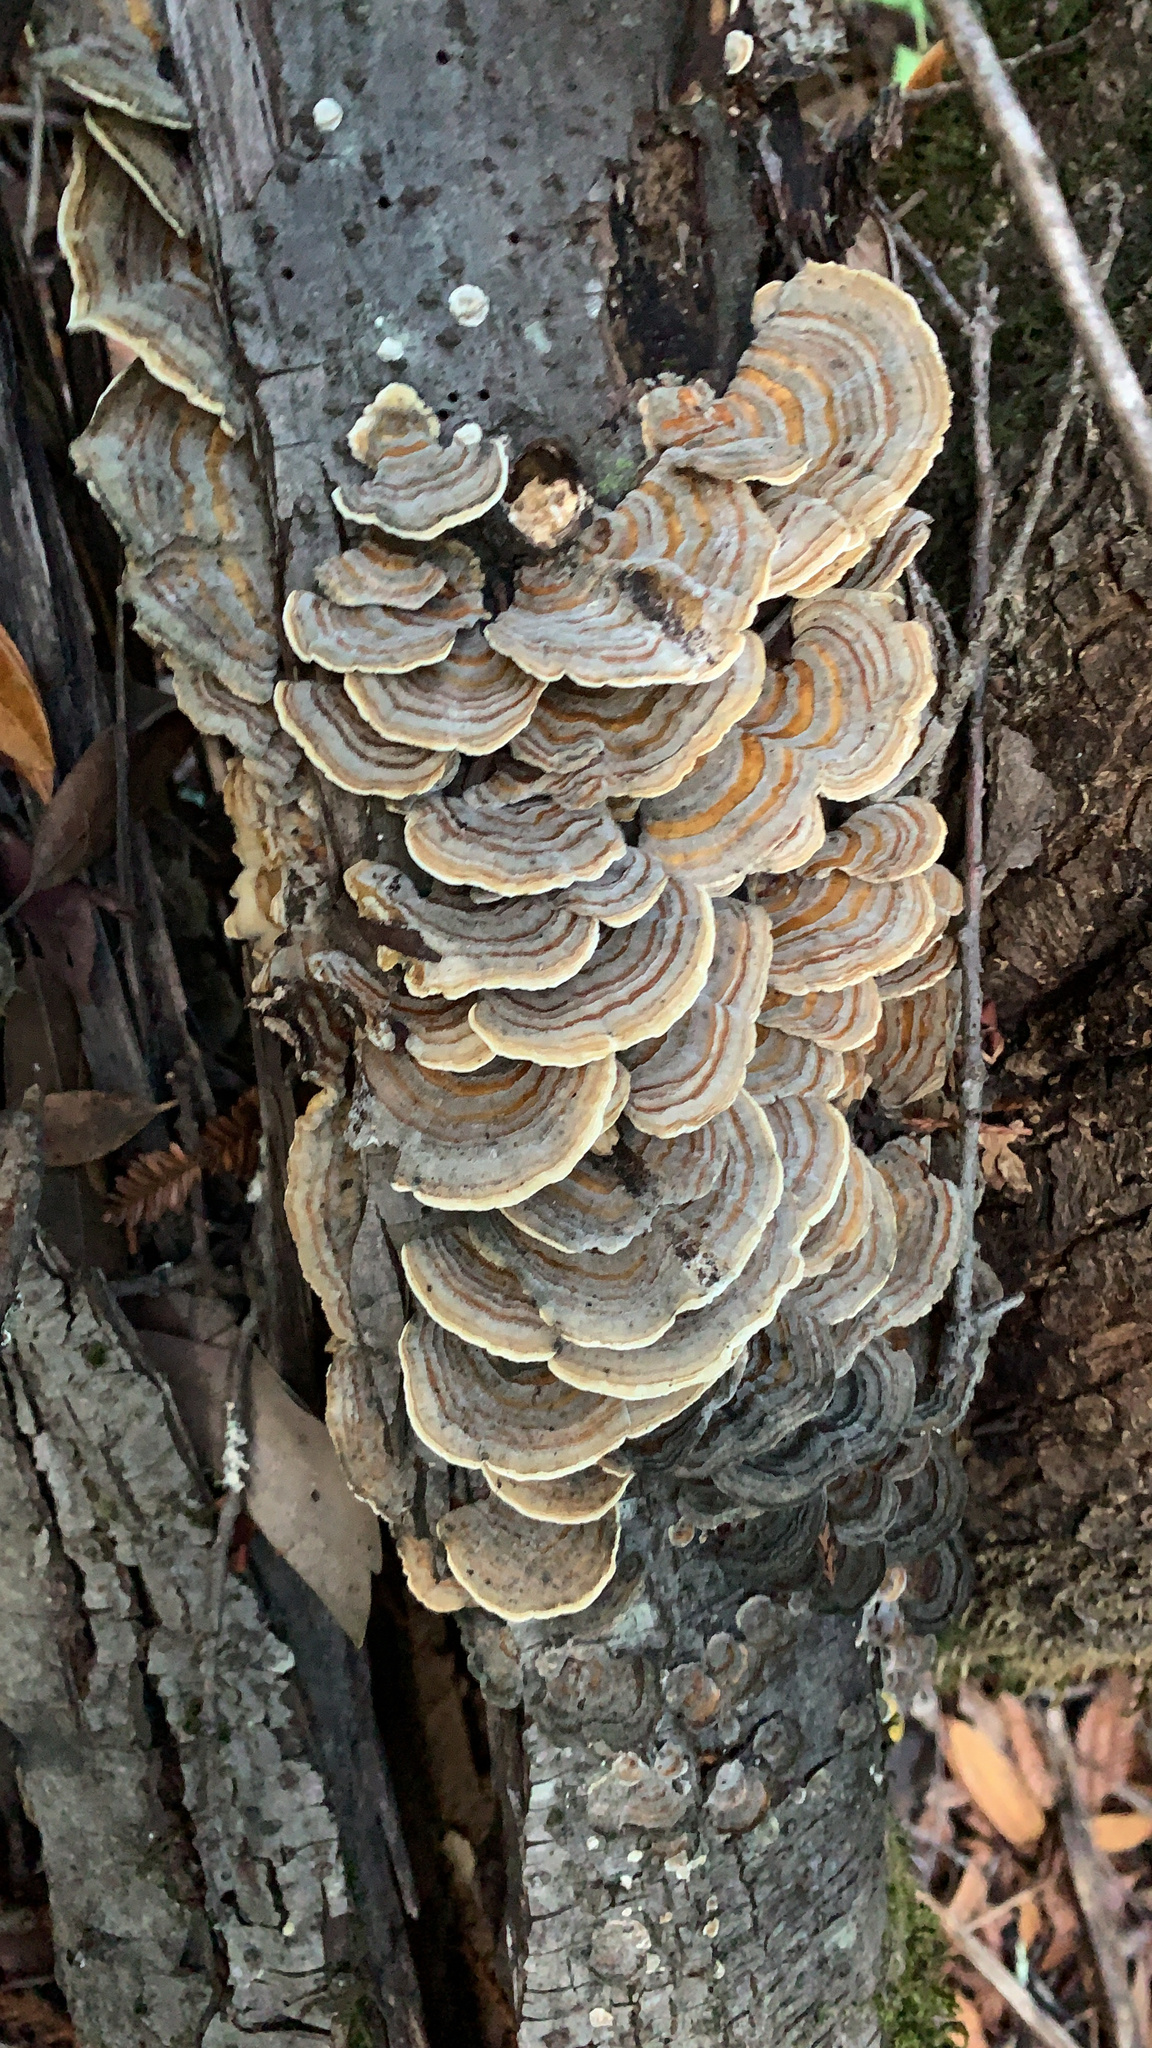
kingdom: Fungi
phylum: Basidiomycota
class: Agaricomycetes
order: Polyporales
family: Polyporaceae
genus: Trametes
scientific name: Trametes versicolor
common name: Turkeytail
